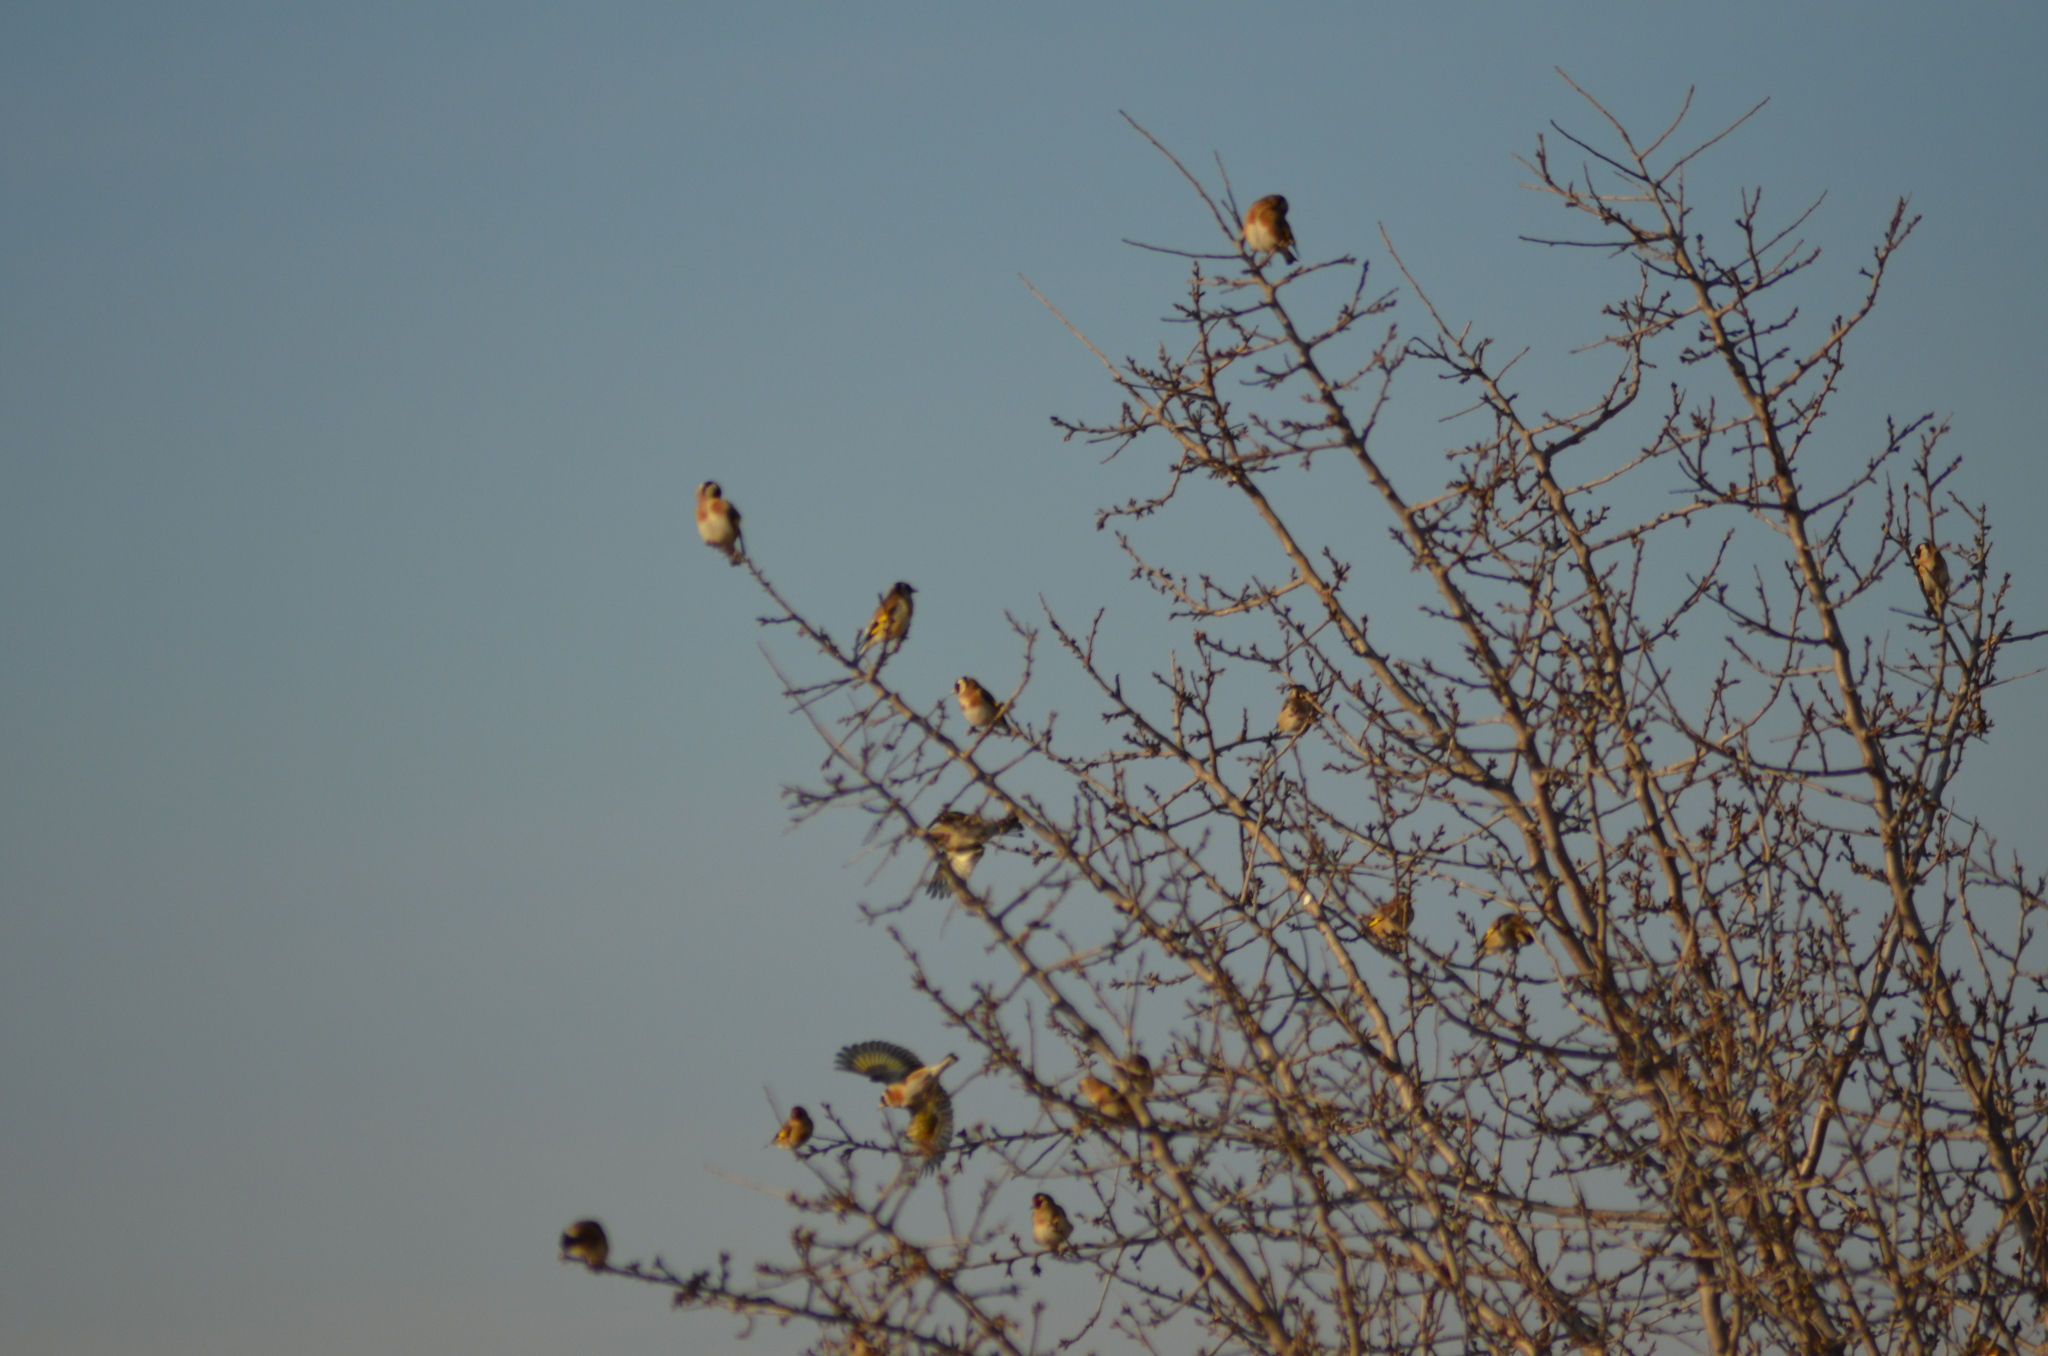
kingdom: Animalia
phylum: Chordata
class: Aves
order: Passeriformes
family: Fringillidae
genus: Carduelis
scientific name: Carduelis carduelis
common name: European goldfinch
